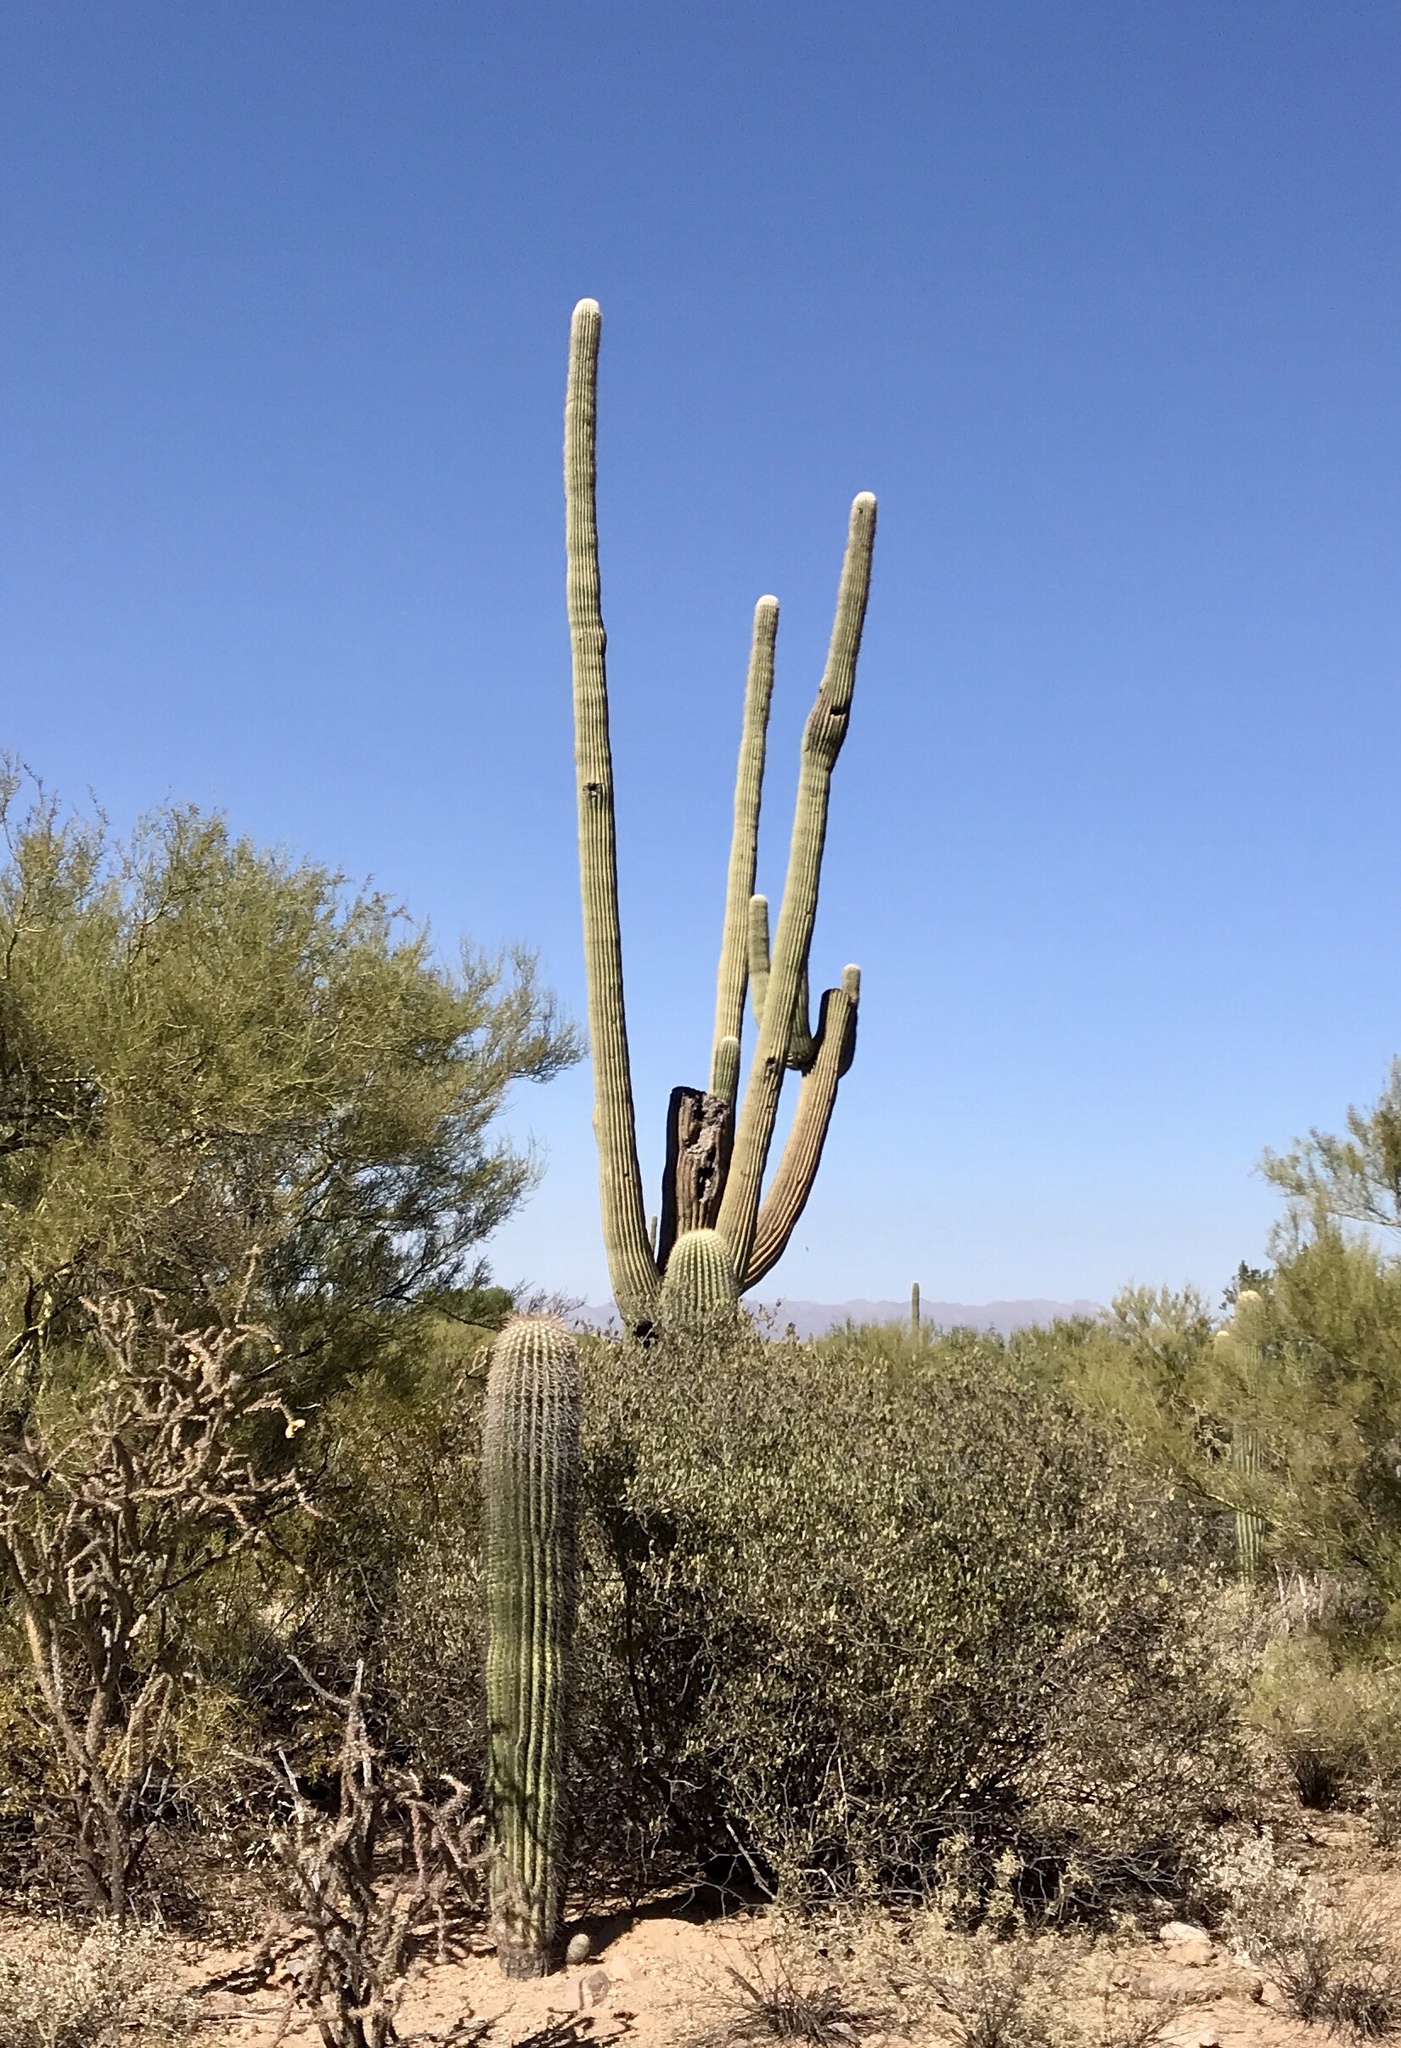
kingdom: Plantae
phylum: Tracheophyta
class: Magnoliopsida
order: Caryophyllales
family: Cactaceae
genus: Carnegiea
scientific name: Carnegiea gigantea
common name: Saguaro
